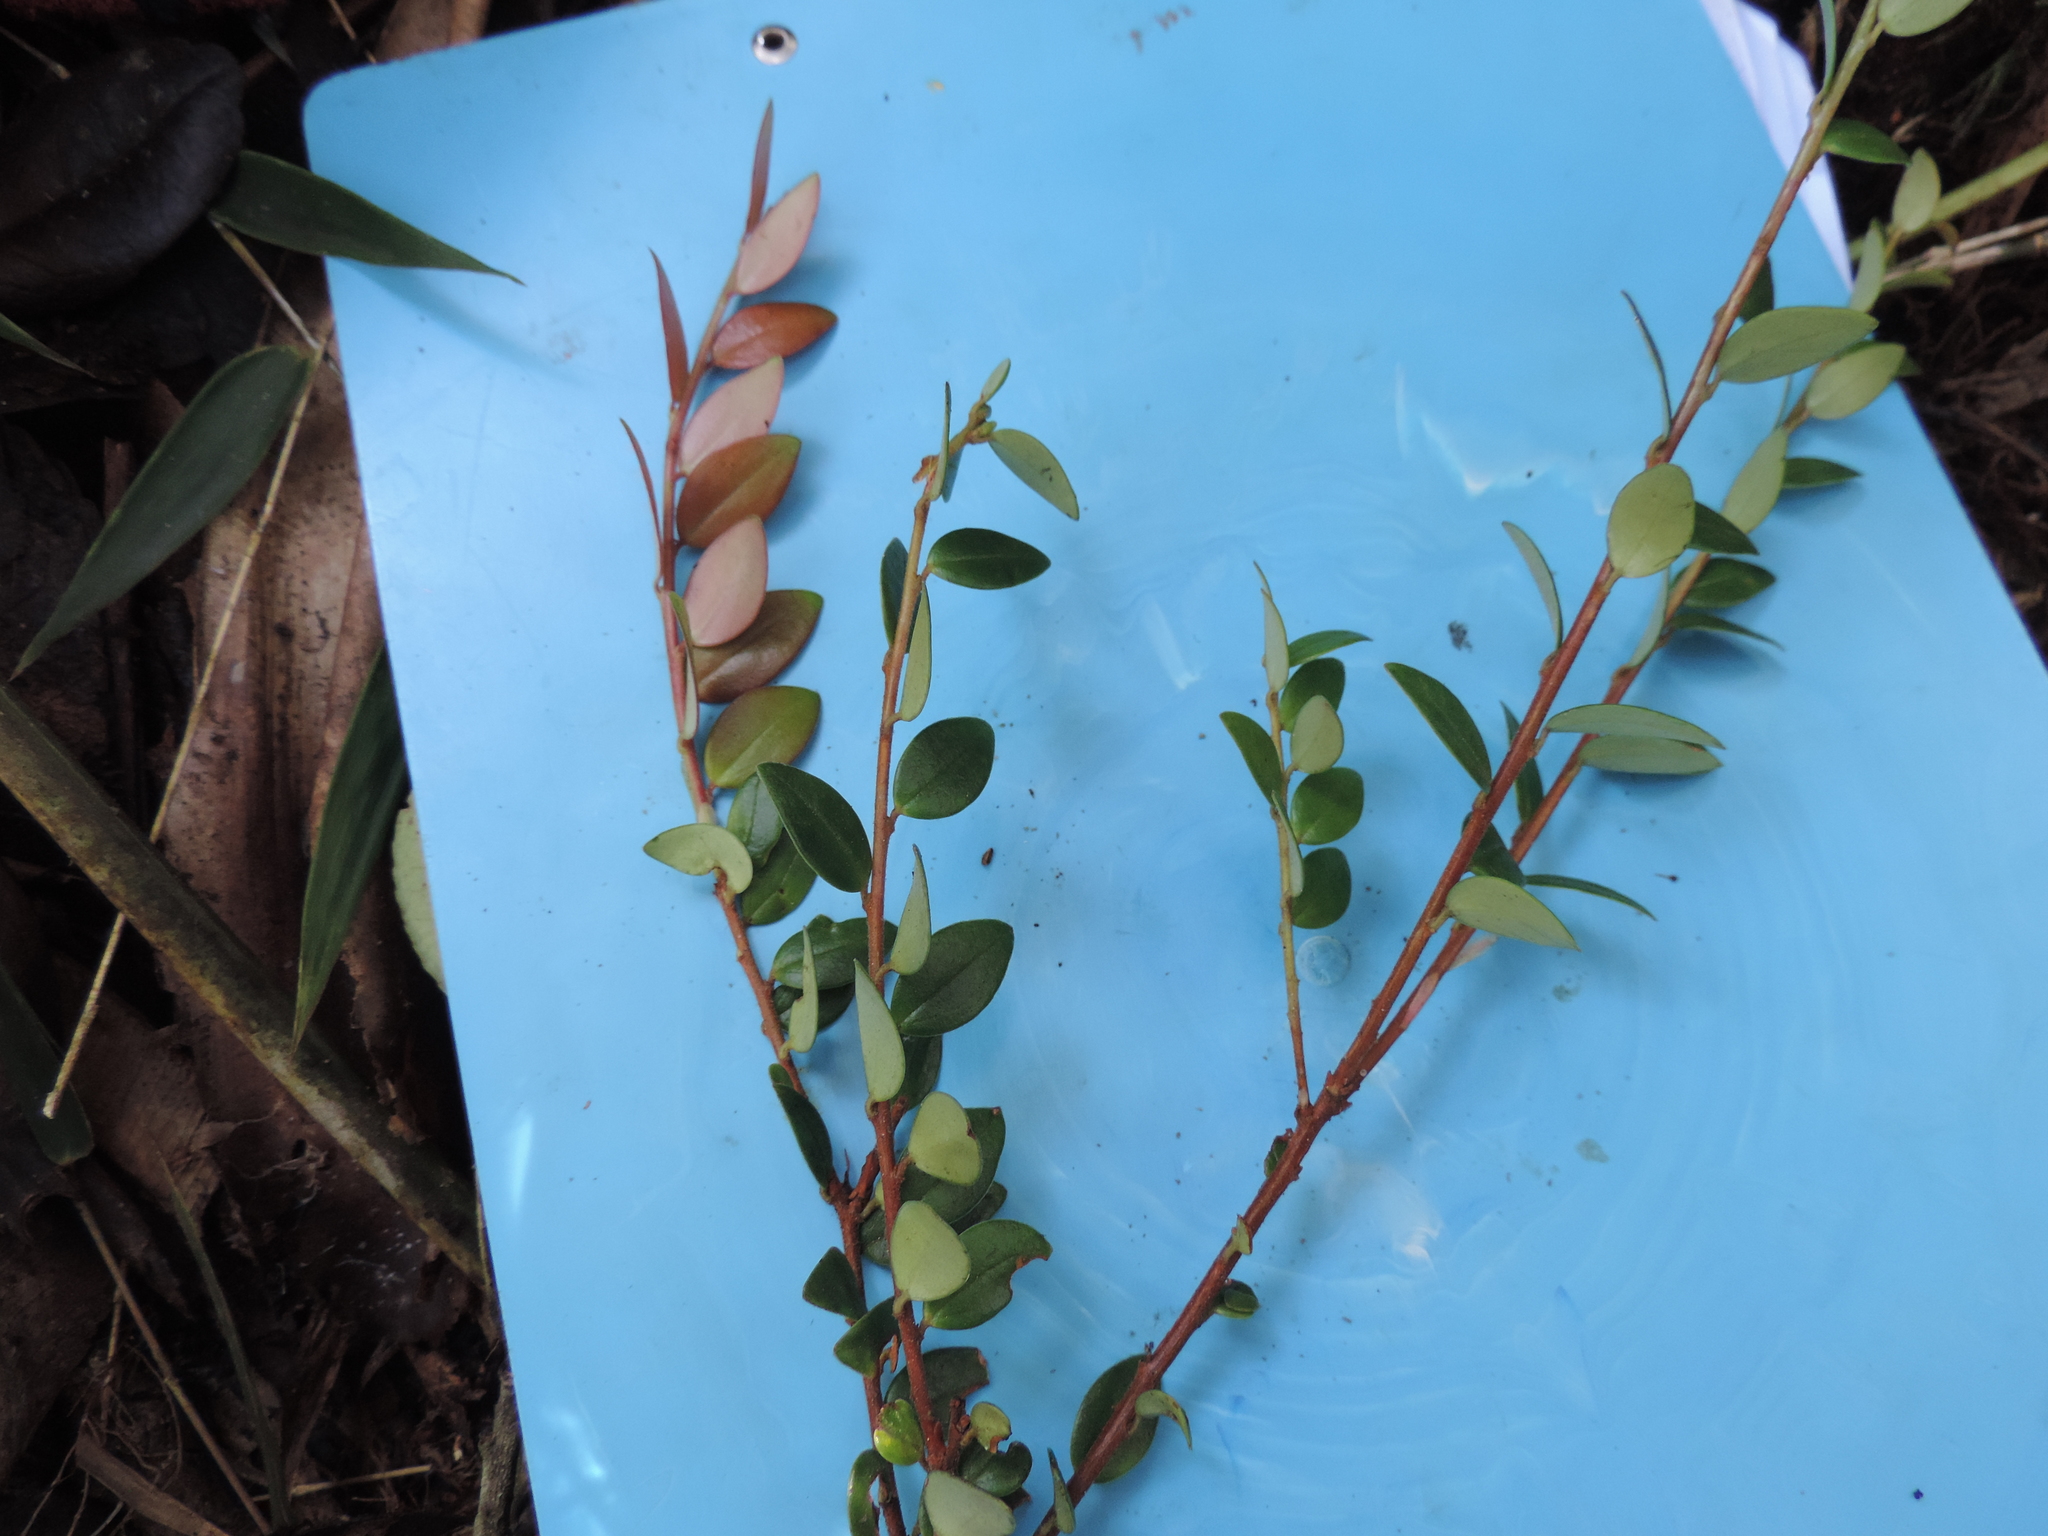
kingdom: Plantae
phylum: Tracheophyta
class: Magnoliopsida
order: Ericales
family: Ericaceae
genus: Sphyrospermum
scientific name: Sphyrospermum buxifolium
